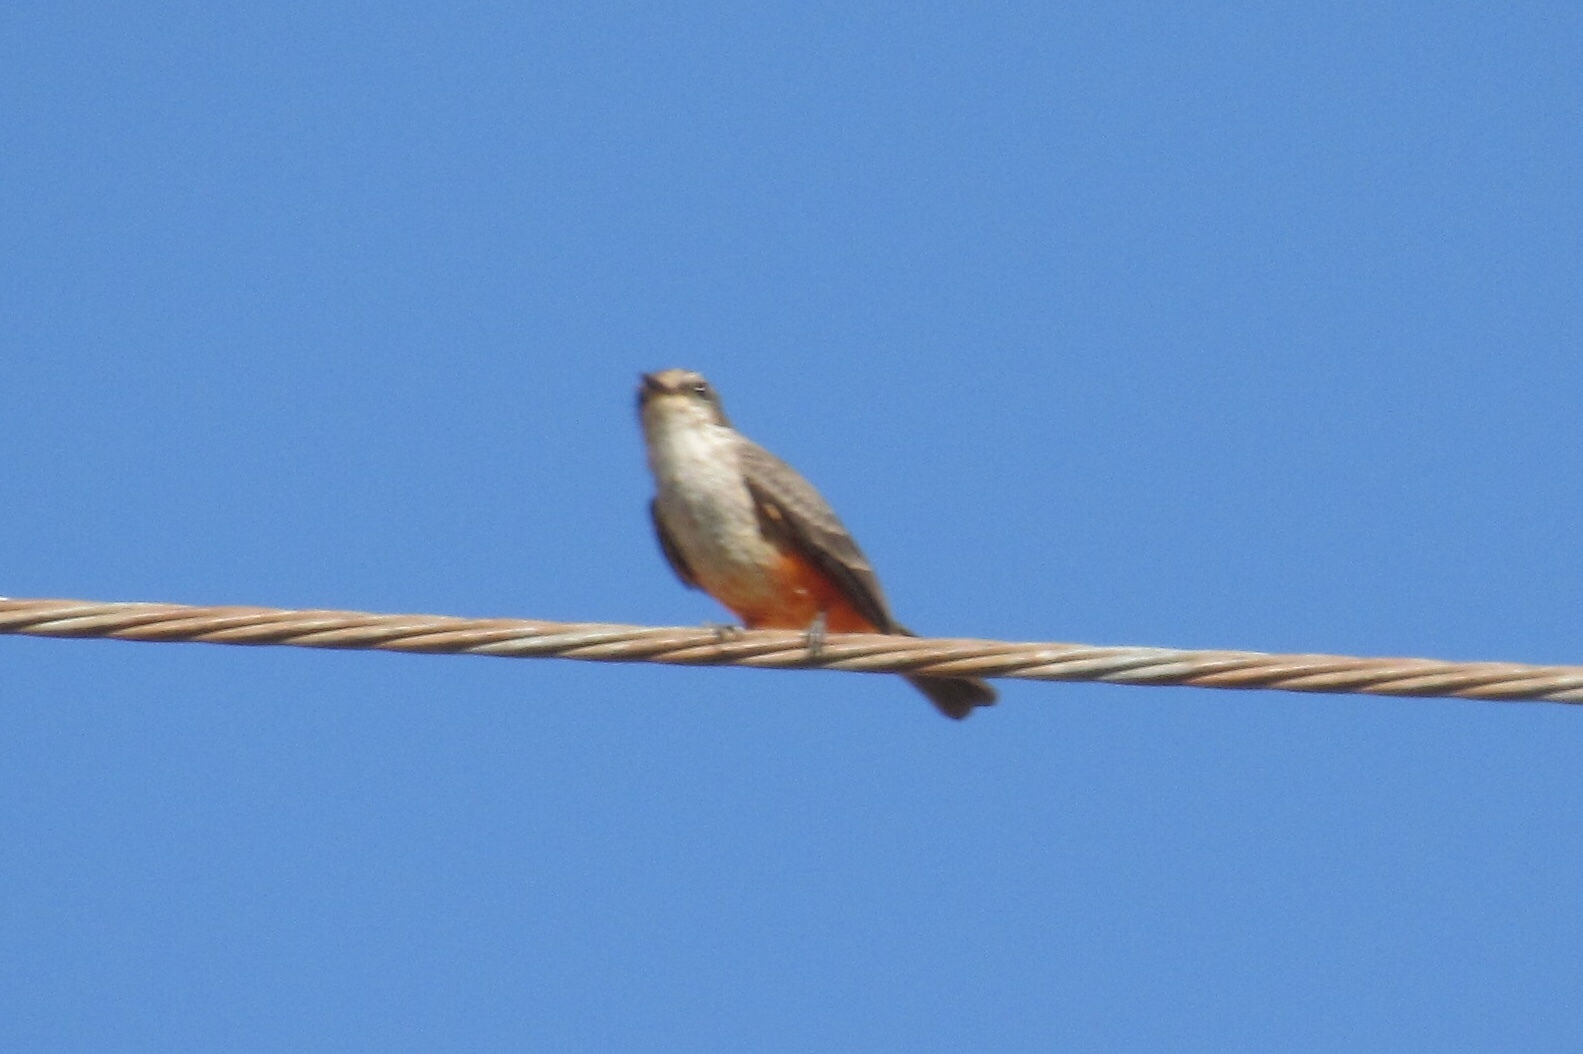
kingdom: Animalia
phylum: Chordata
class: Aves
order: Passeriformes
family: Tyrannidae
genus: Pyrocephalus
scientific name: Pyrocephalus rubinus
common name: Vermilion flycatcher
